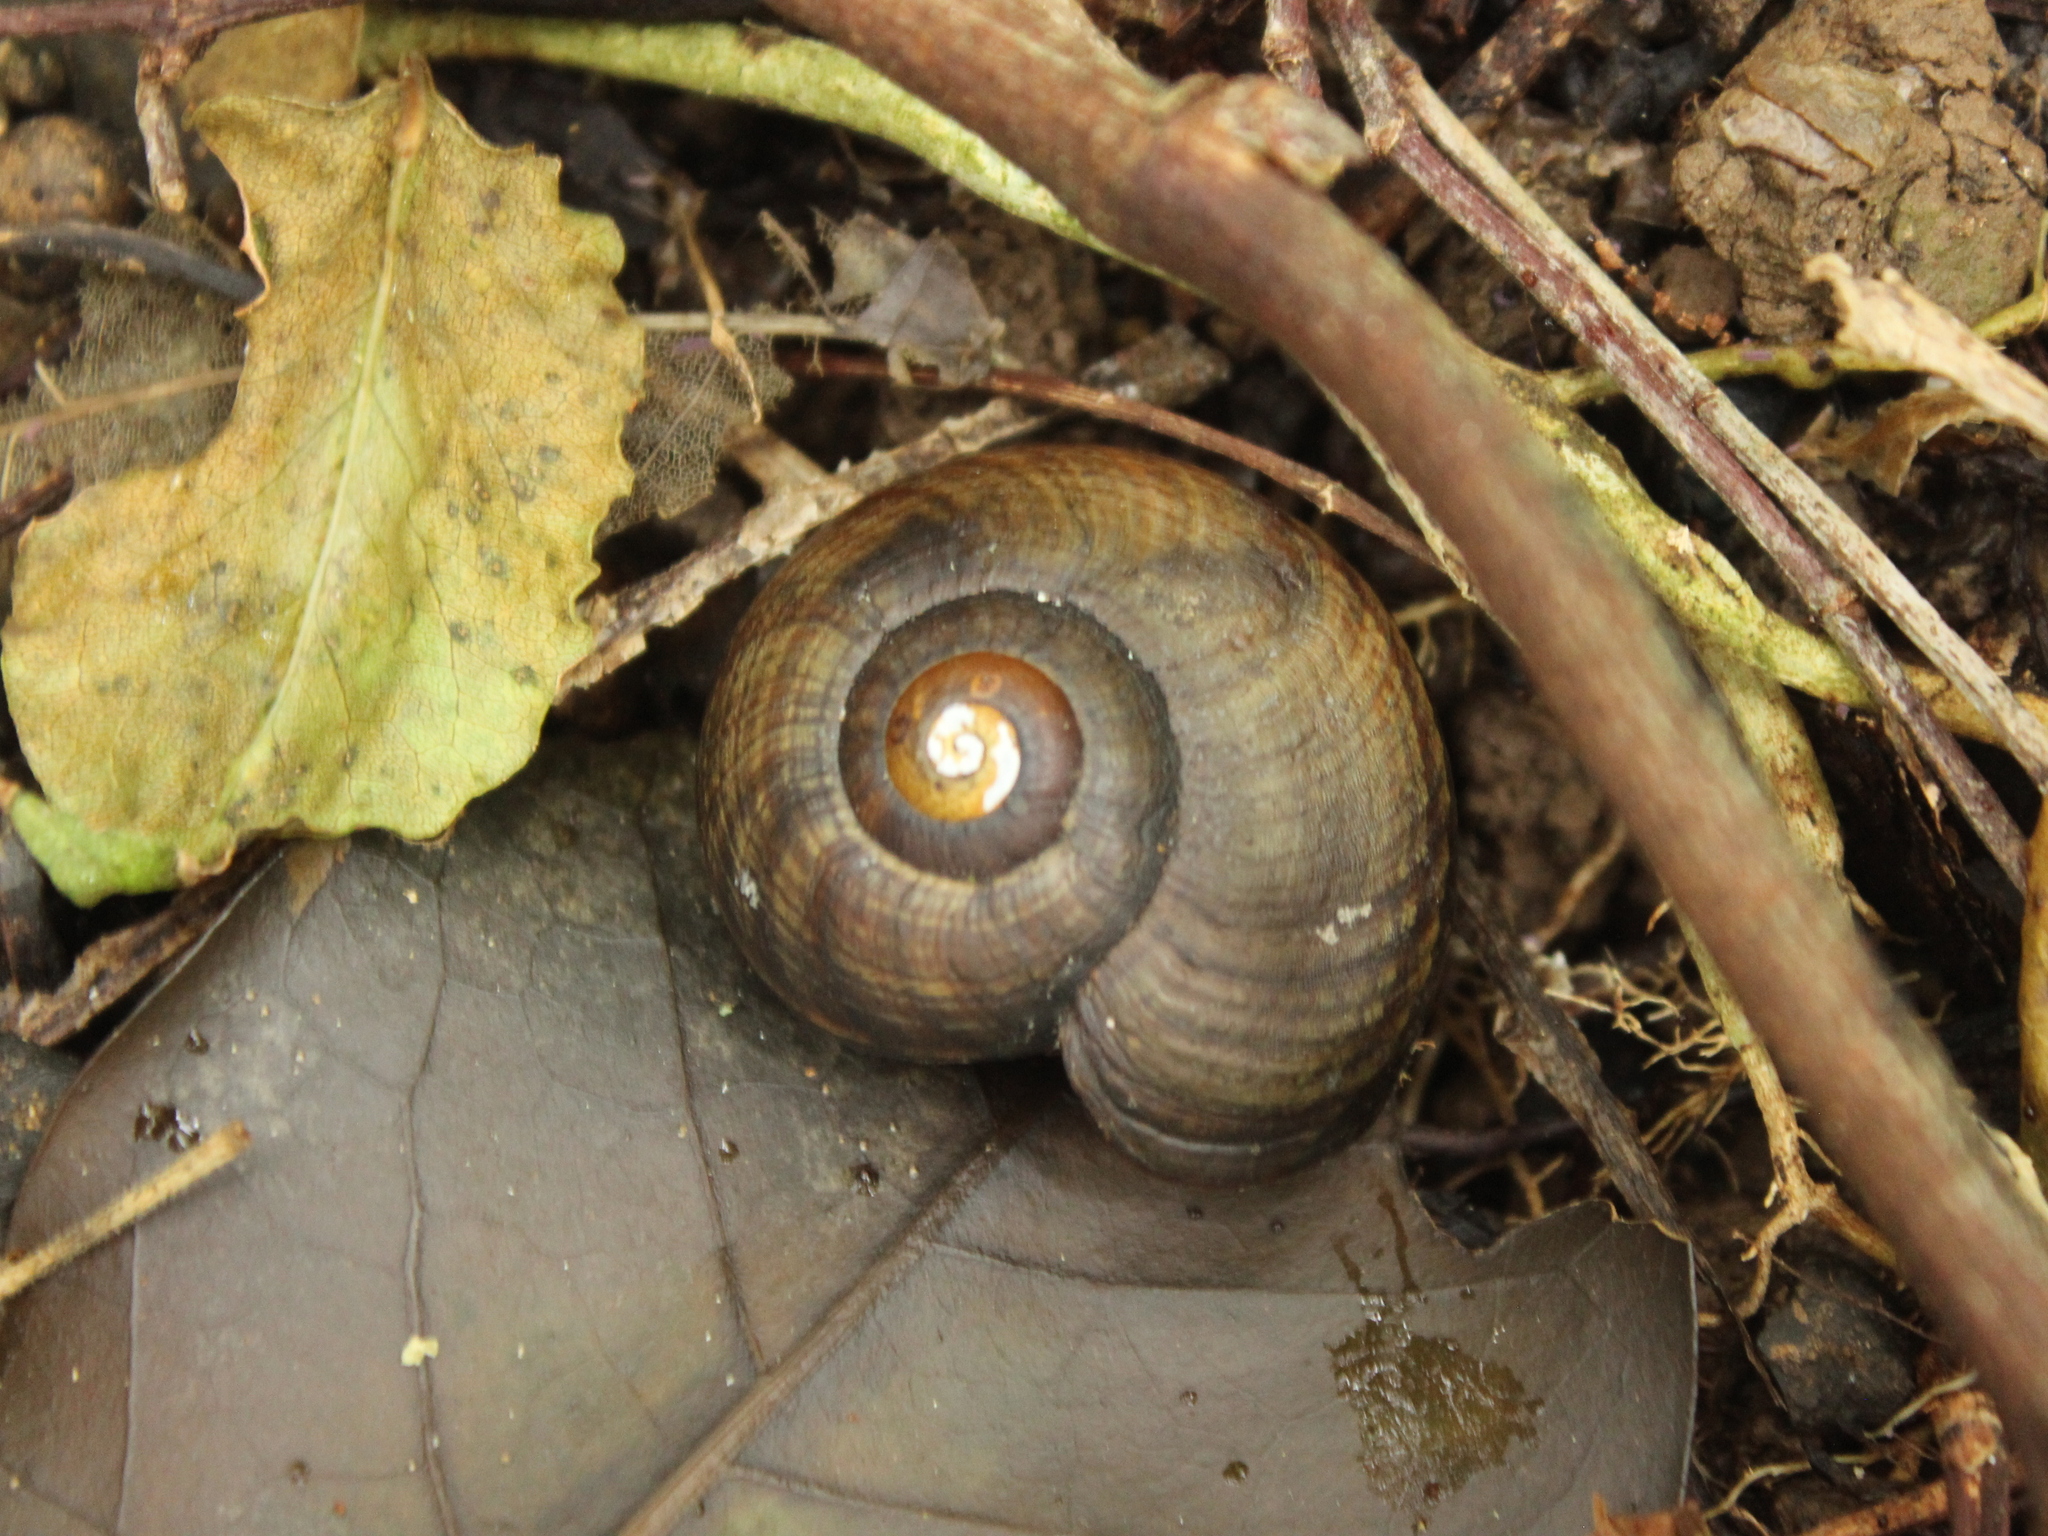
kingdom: Animalia
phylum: Mollusca
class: Gastropoda
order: Stylommatophora
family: Rhytididae
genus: Powelliphanta
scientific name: Powelliphanta traversi
